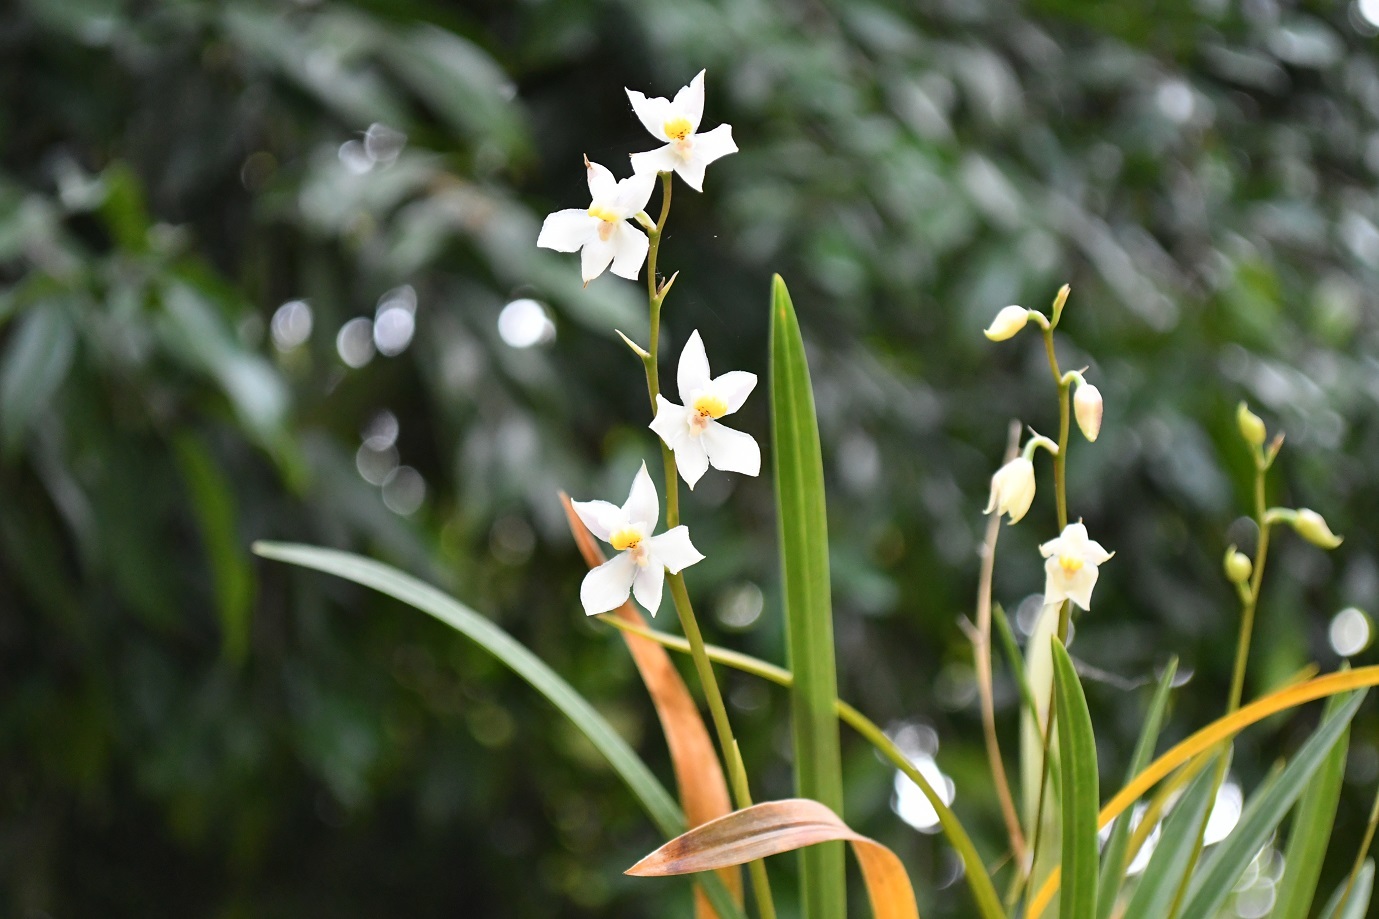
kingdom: Plantae
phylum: Tracheophyta
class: Liliopsida
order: Asparagales
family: Orchidaceae
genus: Cuitlauzina
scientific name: Cuitlauzina pulchella
